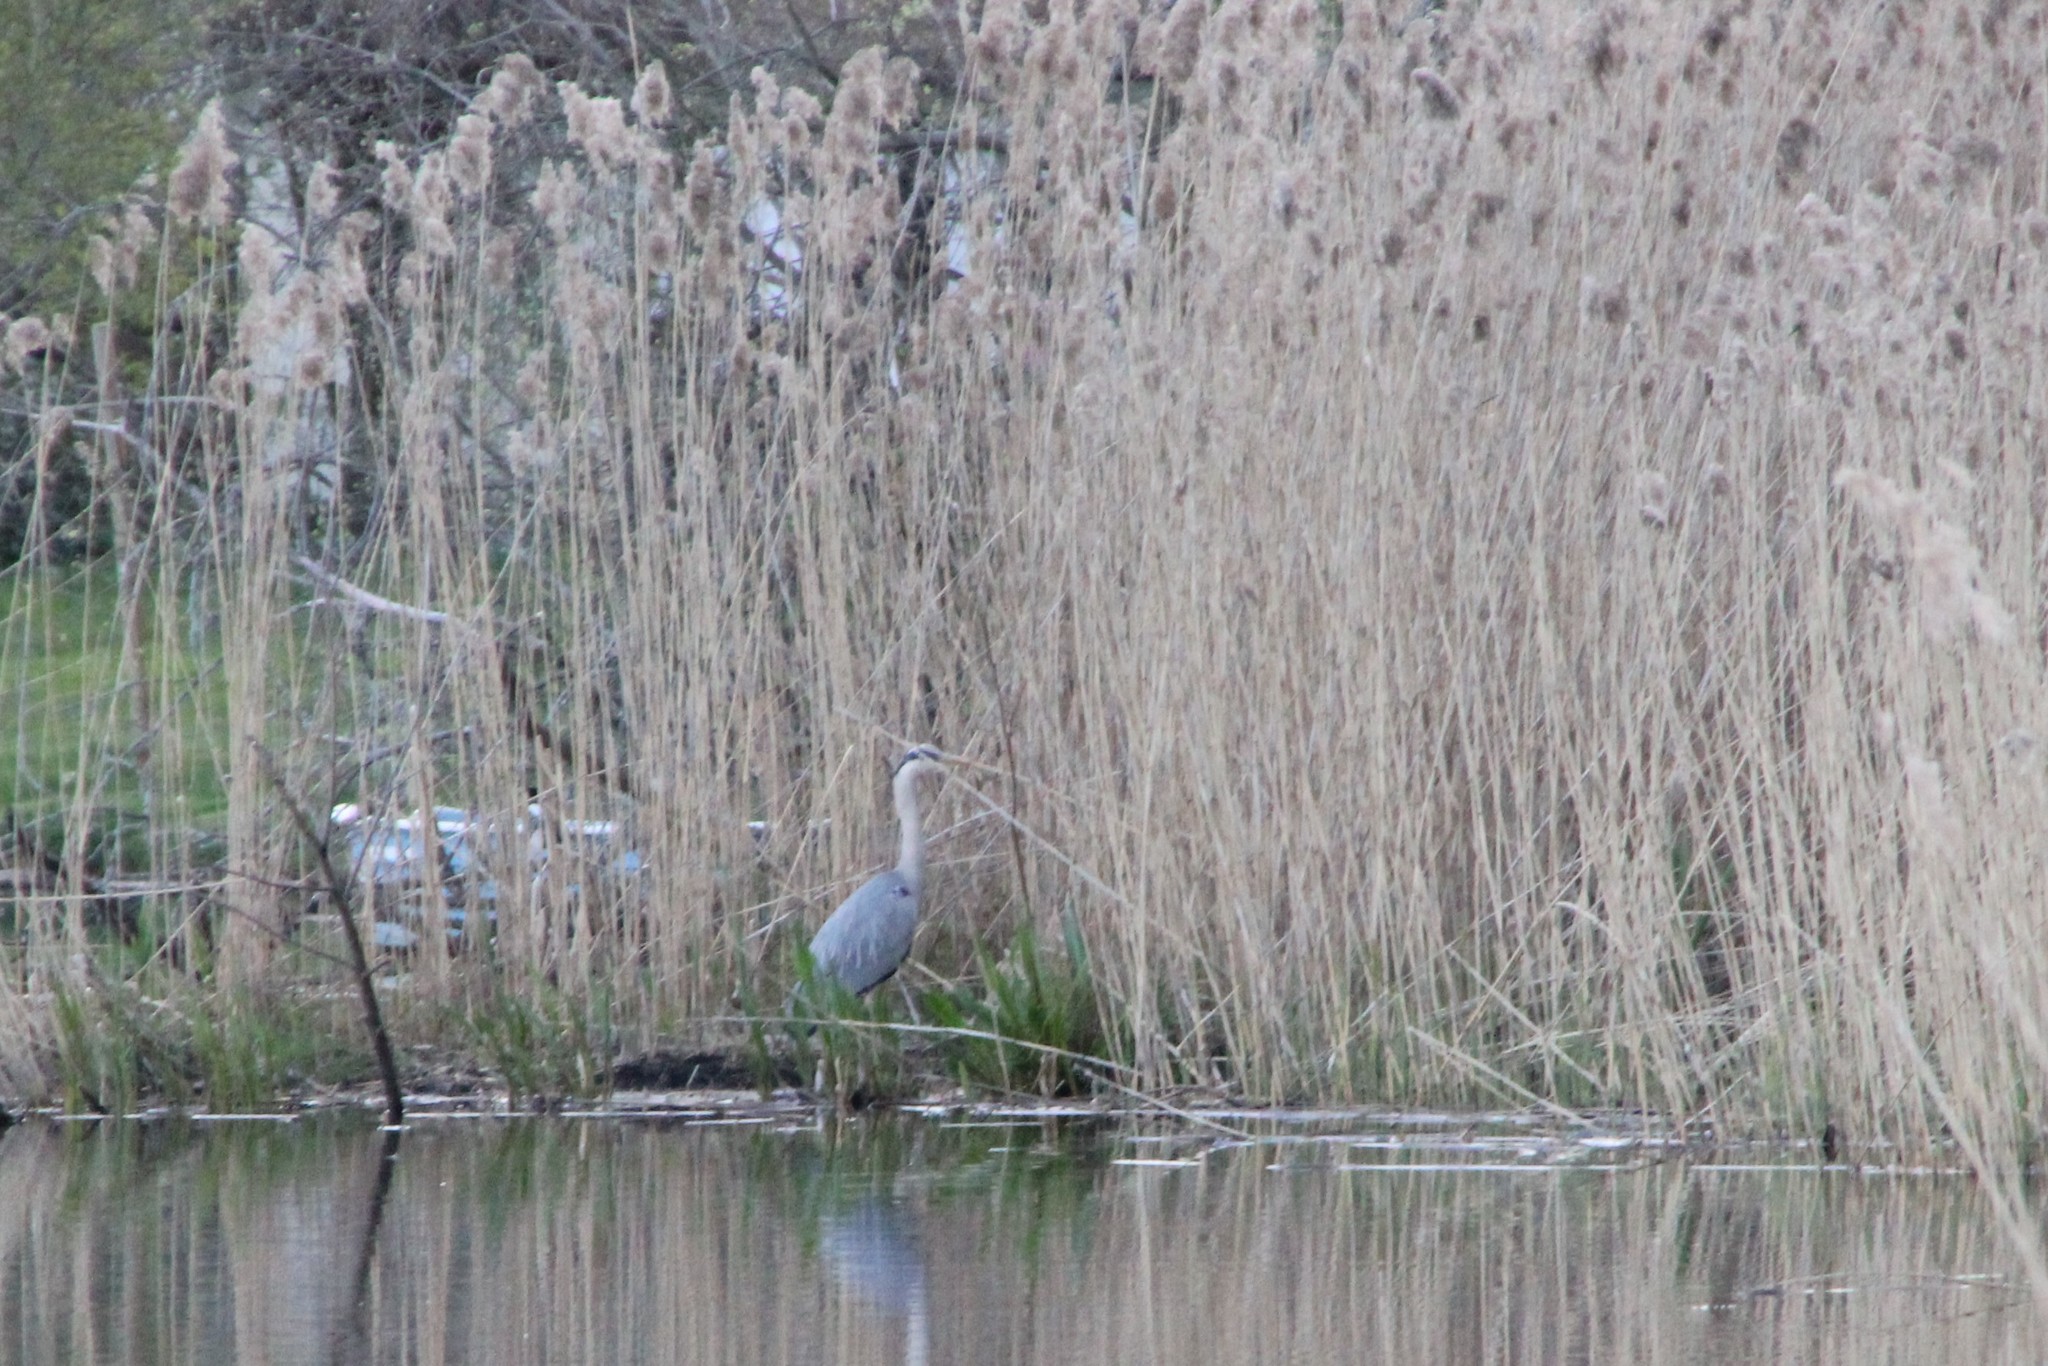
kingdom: Animalia
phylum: Chordata
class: Aves
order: Pelecaniformes
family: Ardeidae
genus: Ardea
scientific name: Ardea cinerea
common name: Grey heron
